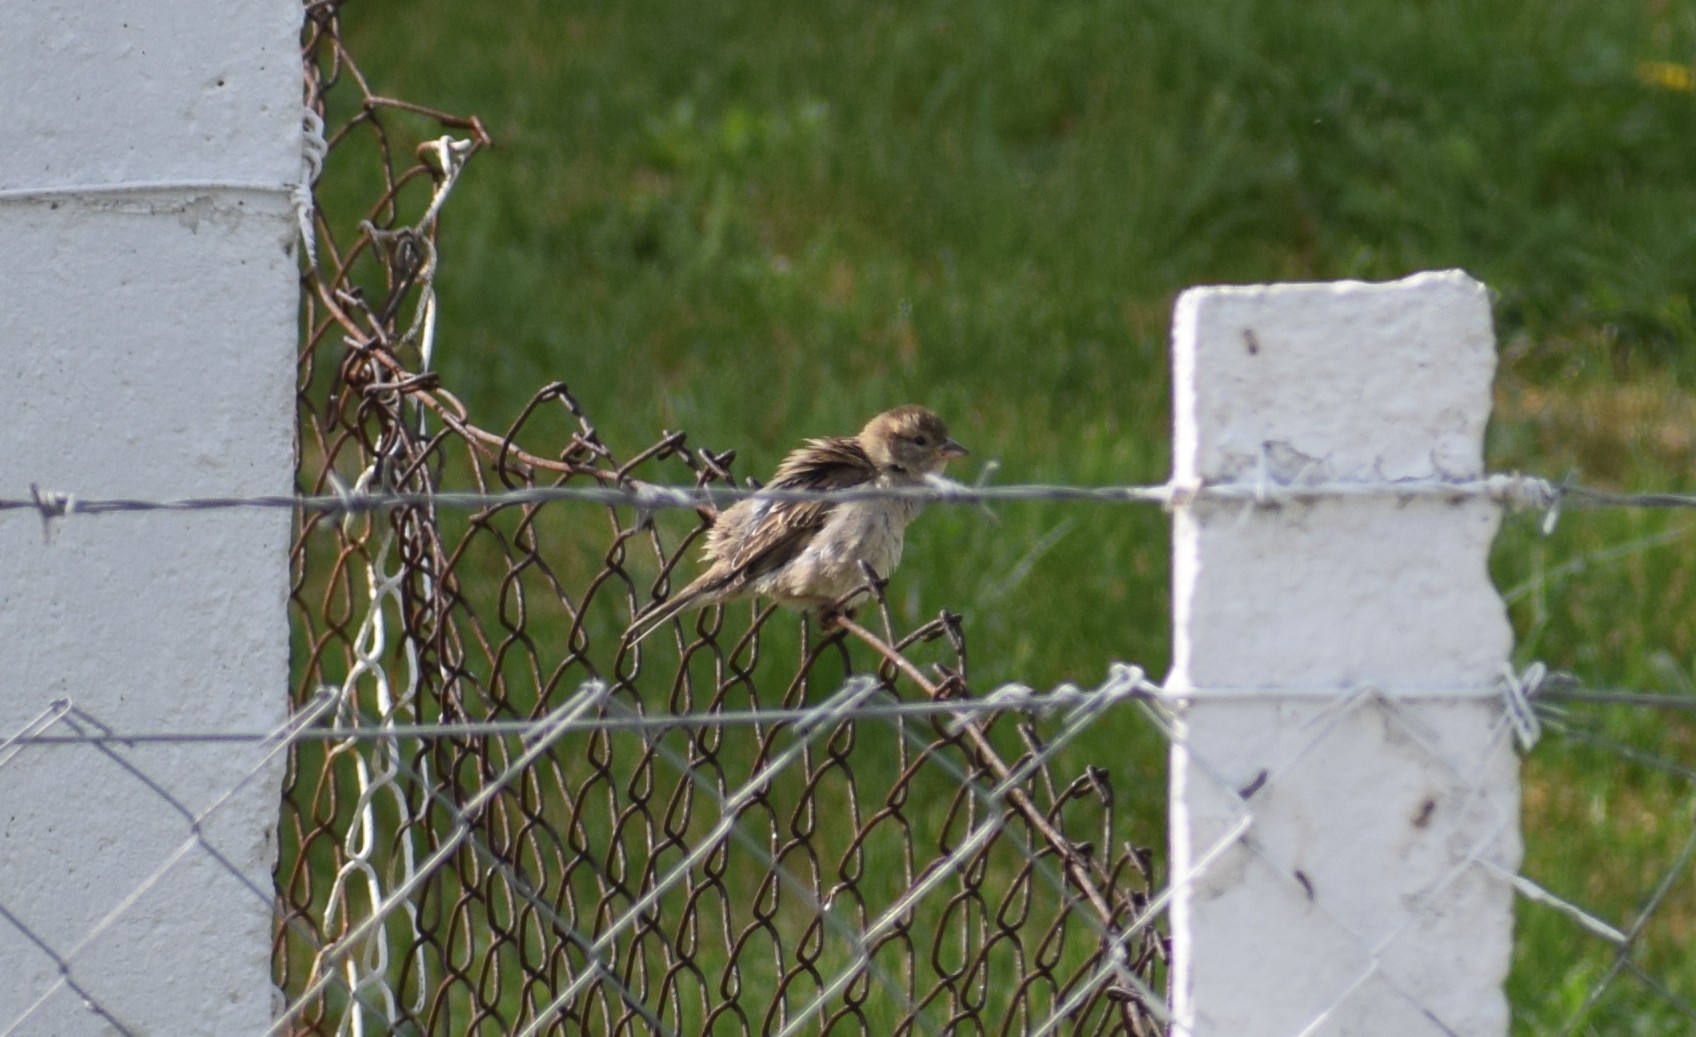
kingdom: Animalia
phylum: Chordata
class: Aves
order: Passeriformes
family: Passeridae
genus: Passer
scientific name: Passer domesticus
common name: House sparrow
